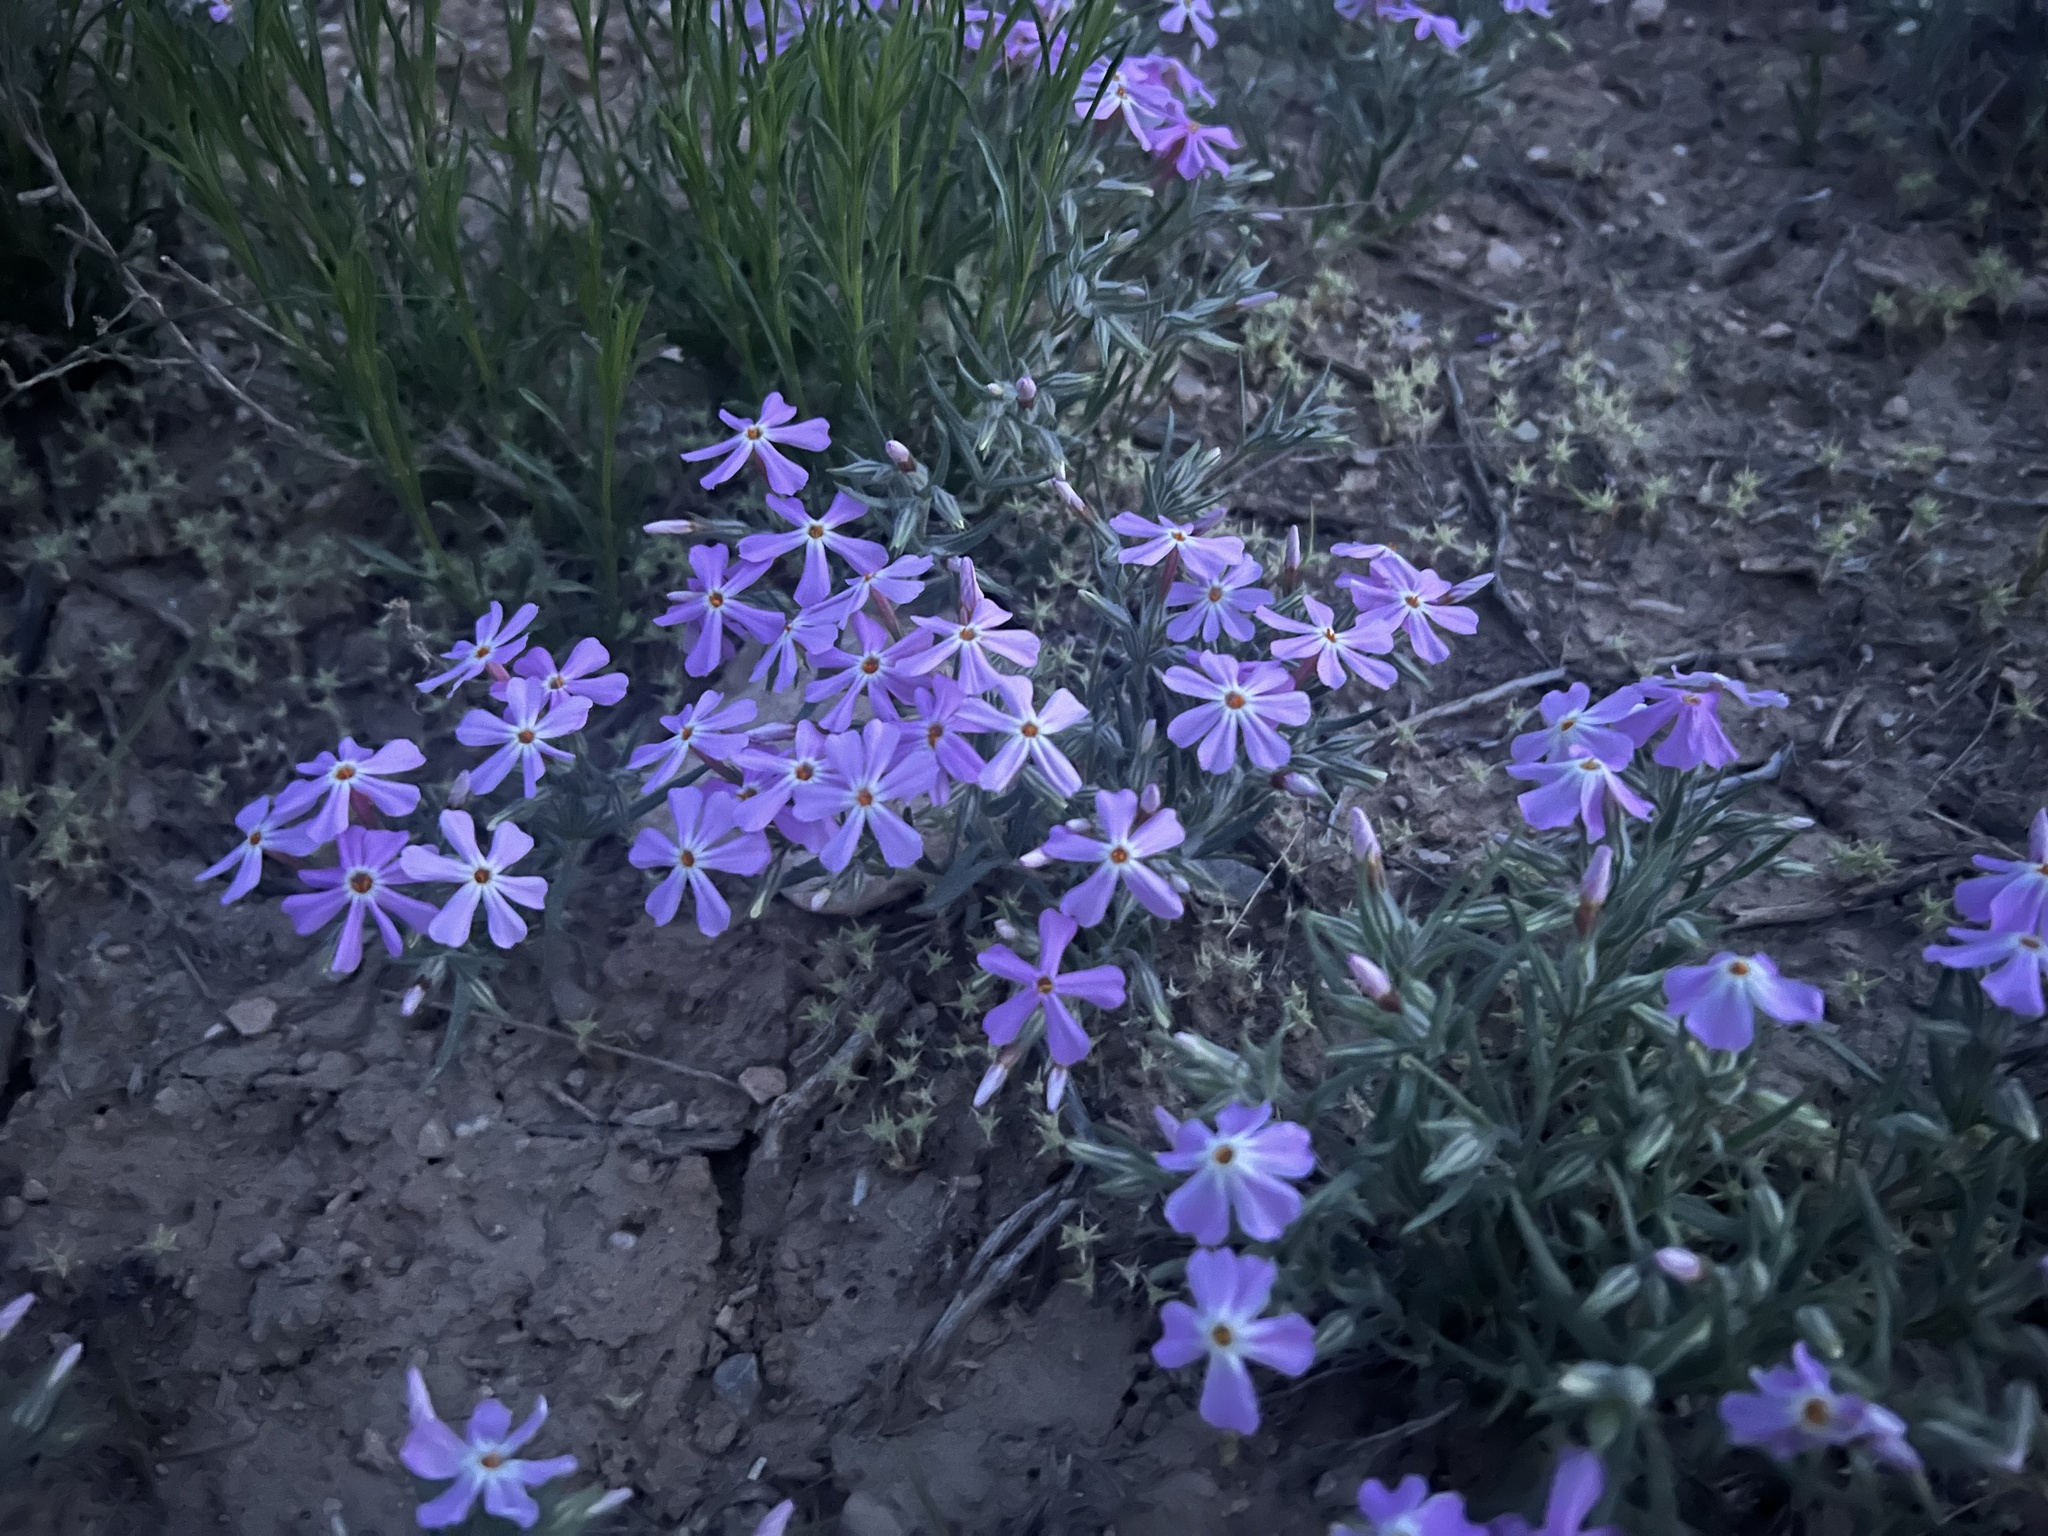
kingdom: Plantae
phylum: Tracheophyta
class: Magnoliopsida
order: Ericales
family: Polemoniaceae
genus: Phlox
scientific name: Phlox longifolia
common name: Longleaf phlox
